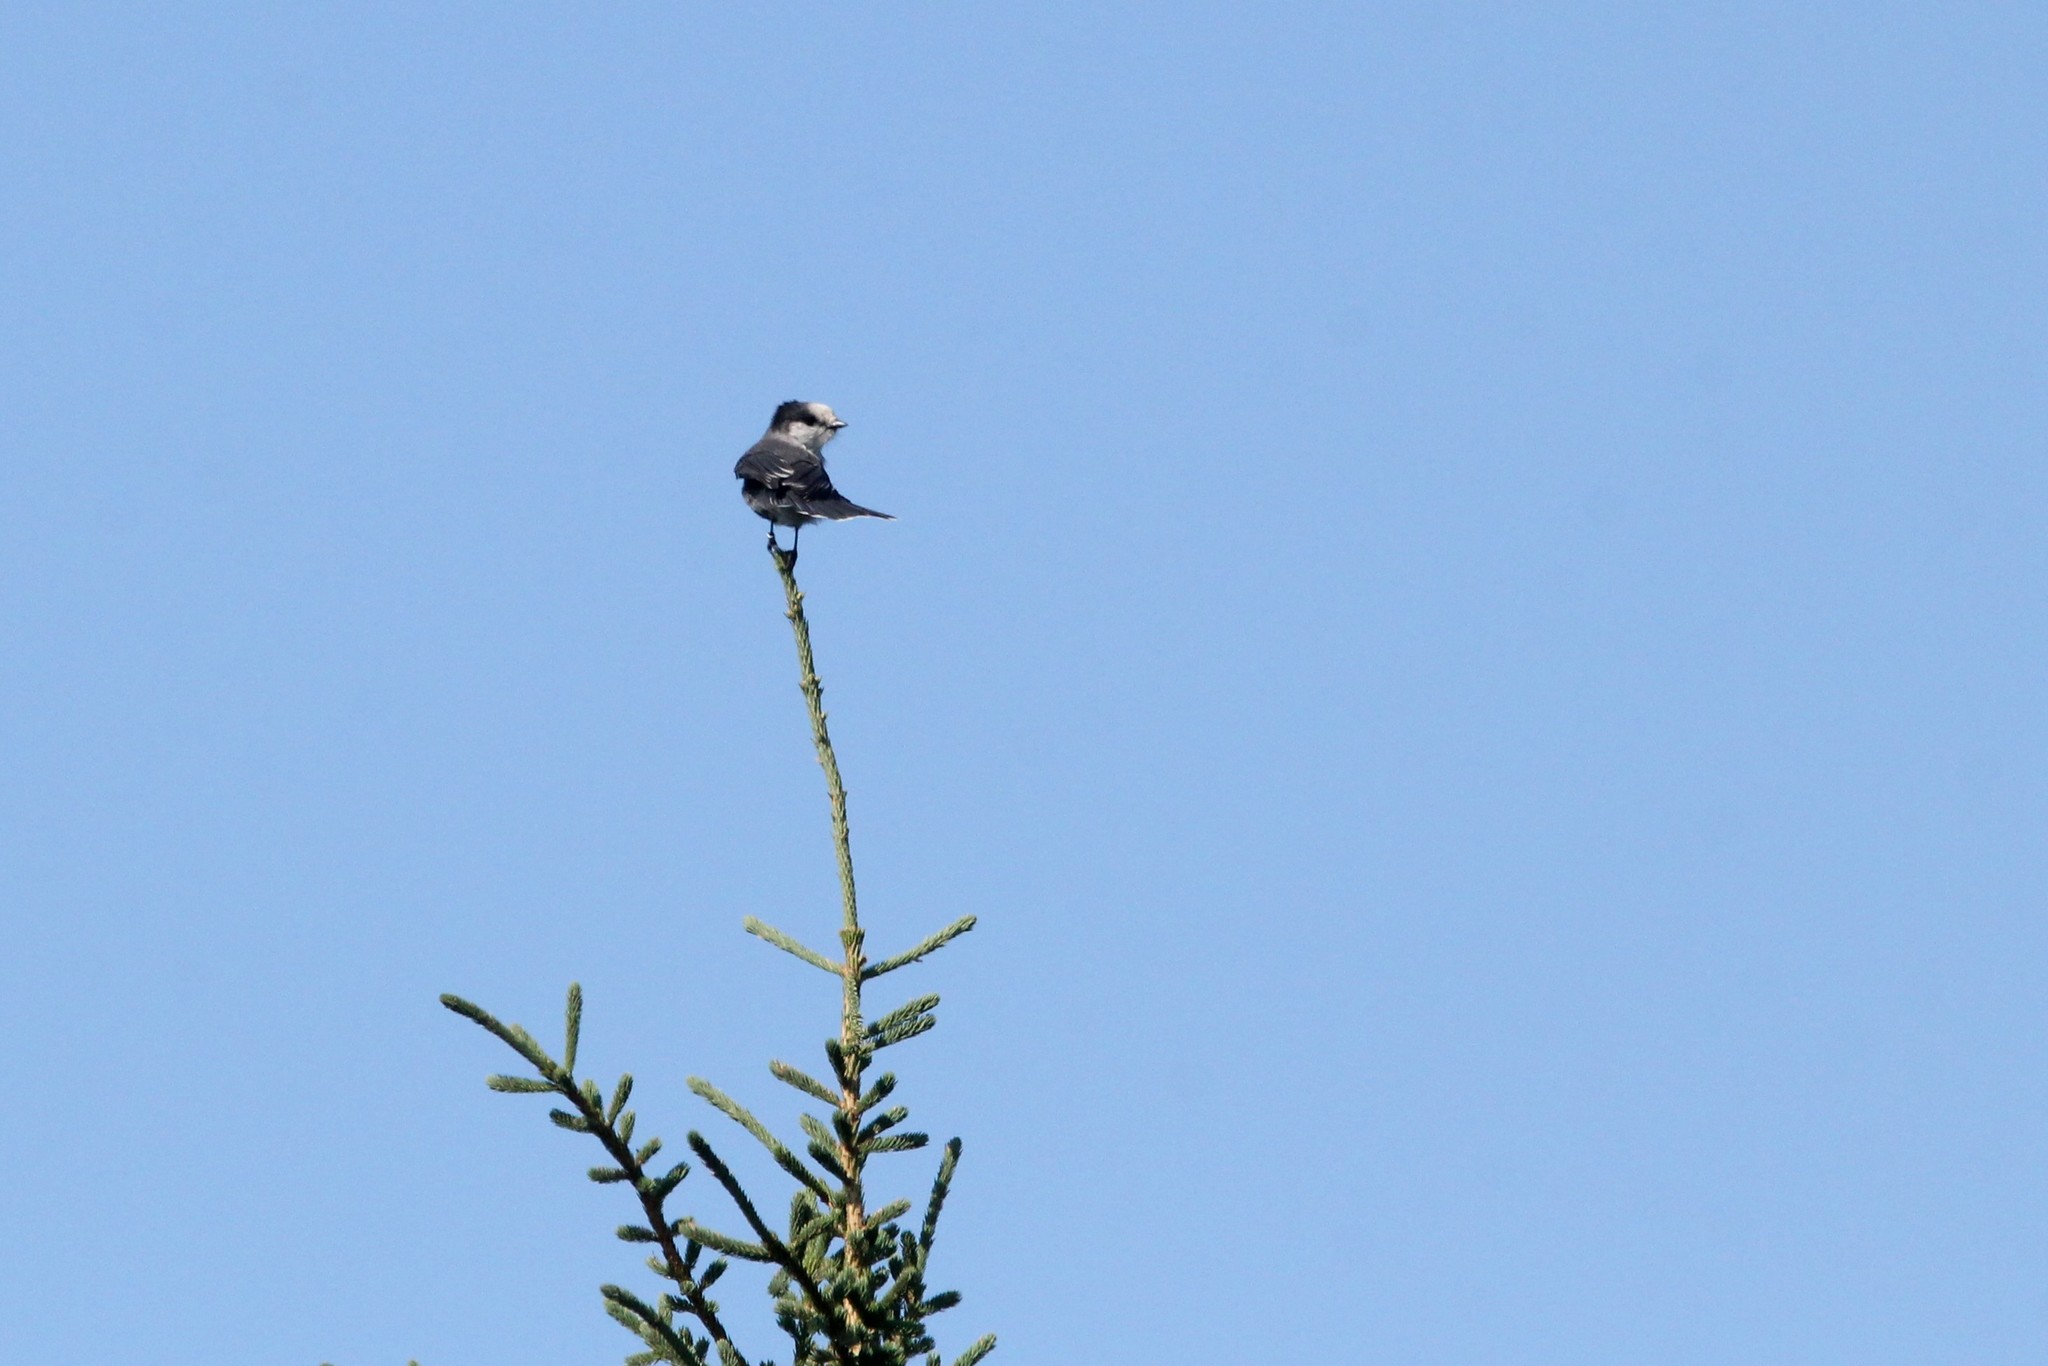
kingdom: Animalia
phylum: Chordata
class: Aves
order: Passeriformes
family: Corvidae
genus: Perisoreus
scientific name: Perisoreus canadensis
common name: Gray jay
